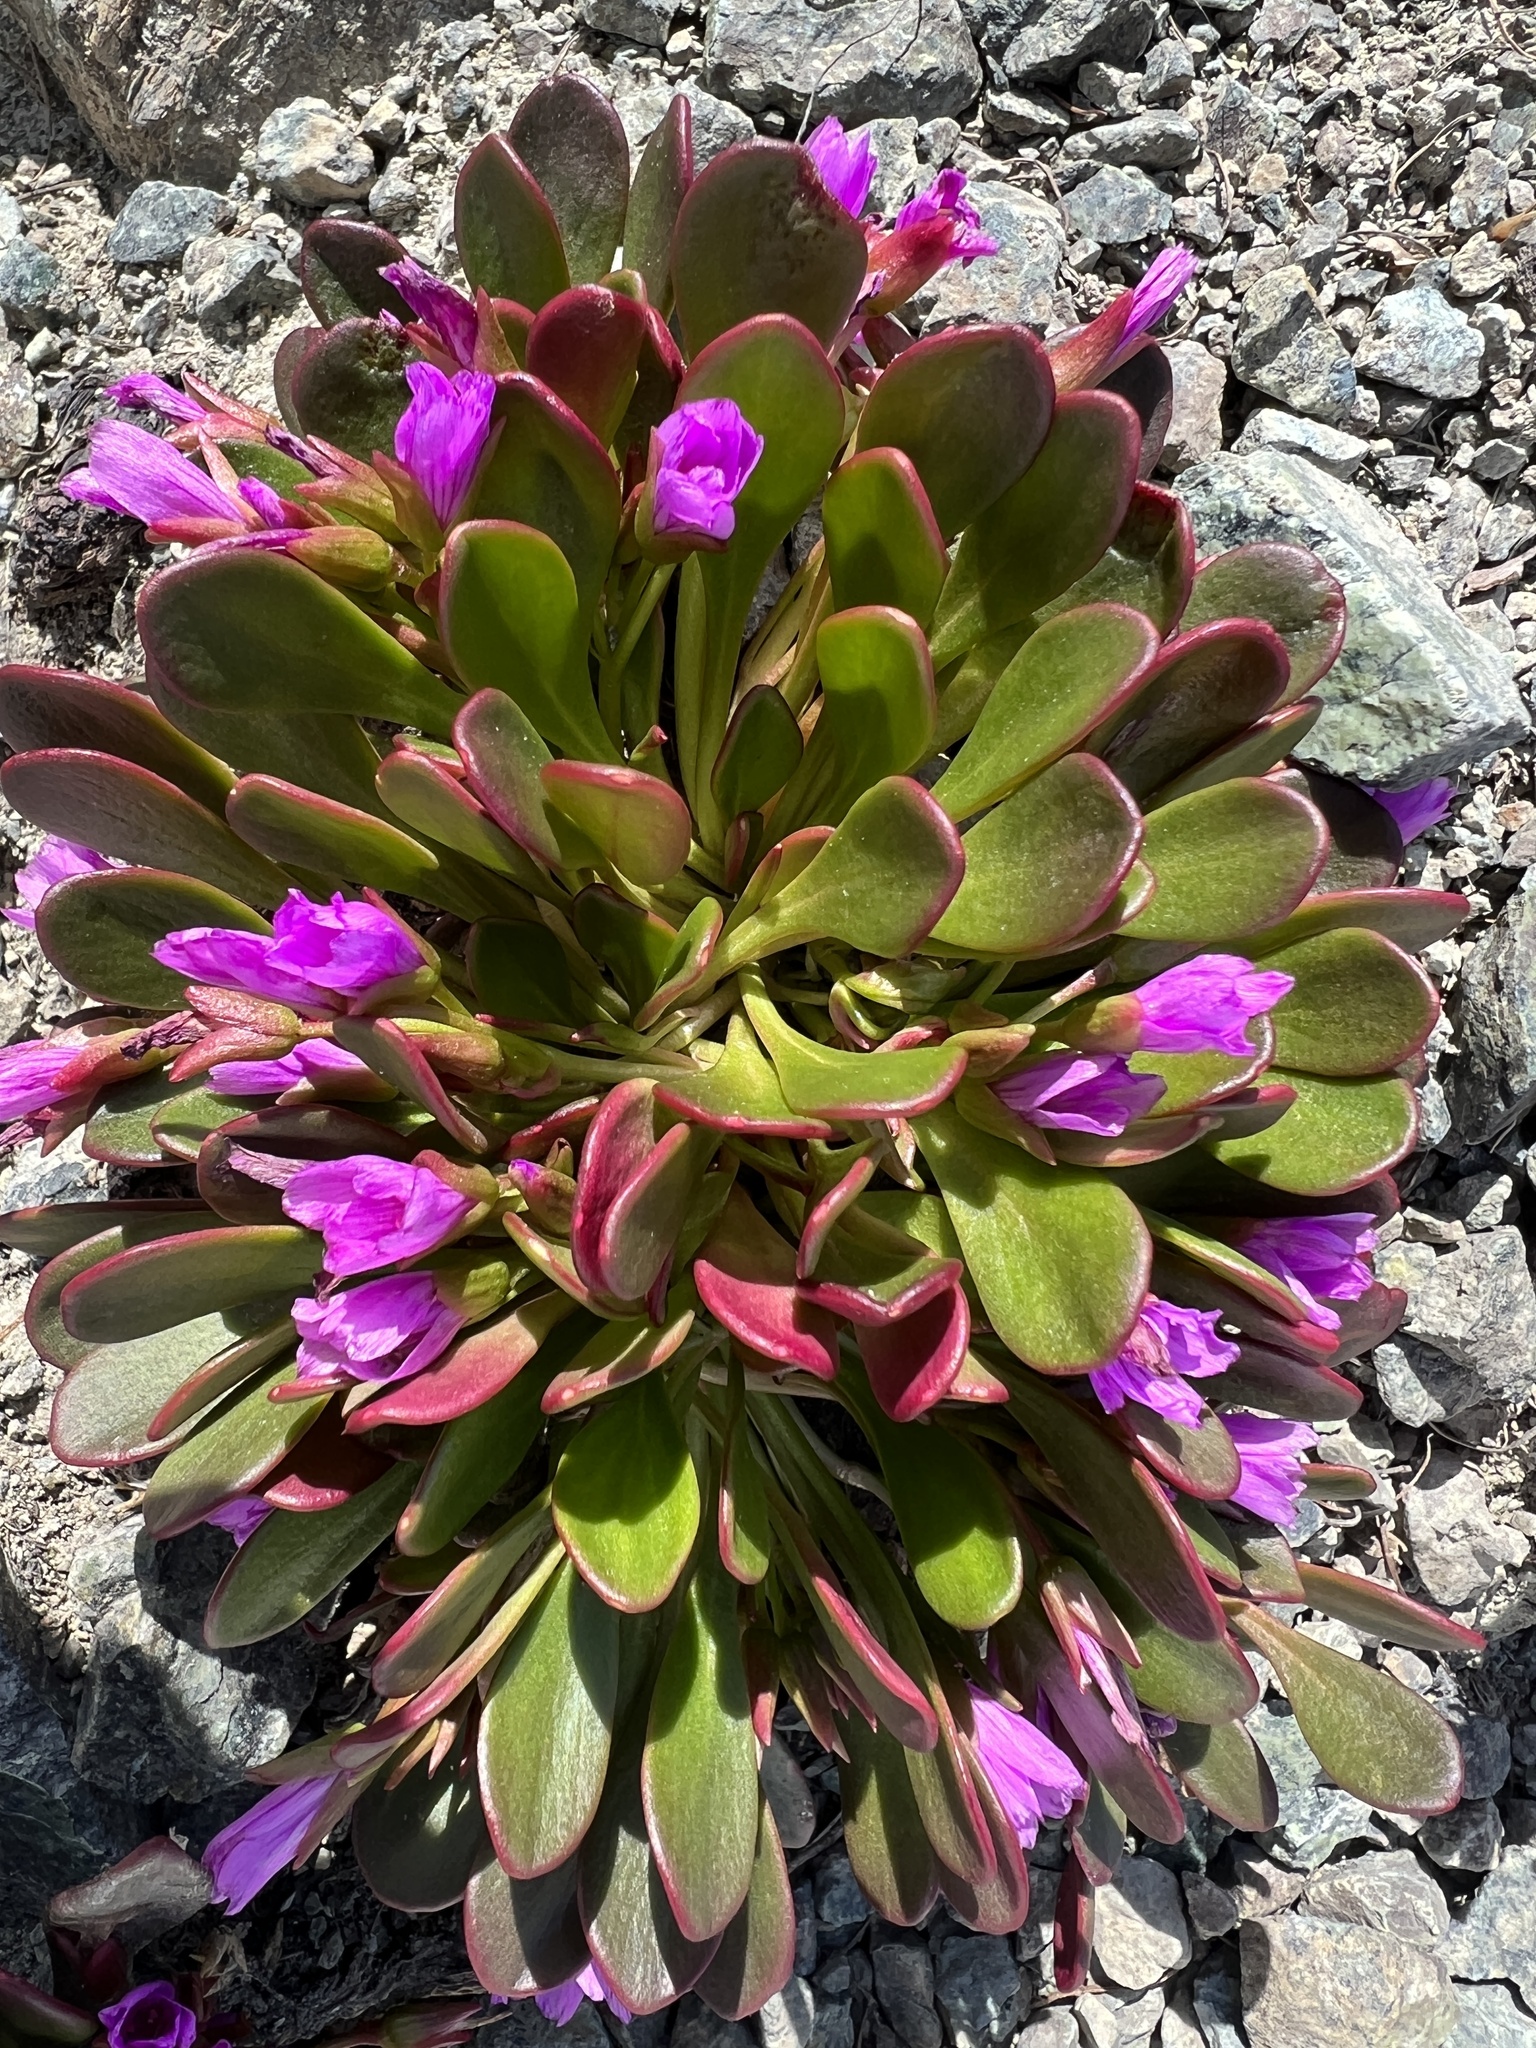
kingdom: Plantae
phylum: Tracheophyta
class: Magnoliopsida
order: Caryophyllales
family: Montiaceae
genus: Claytonia
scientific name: Claytonia megarhiza
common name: Alpine spring beauty
